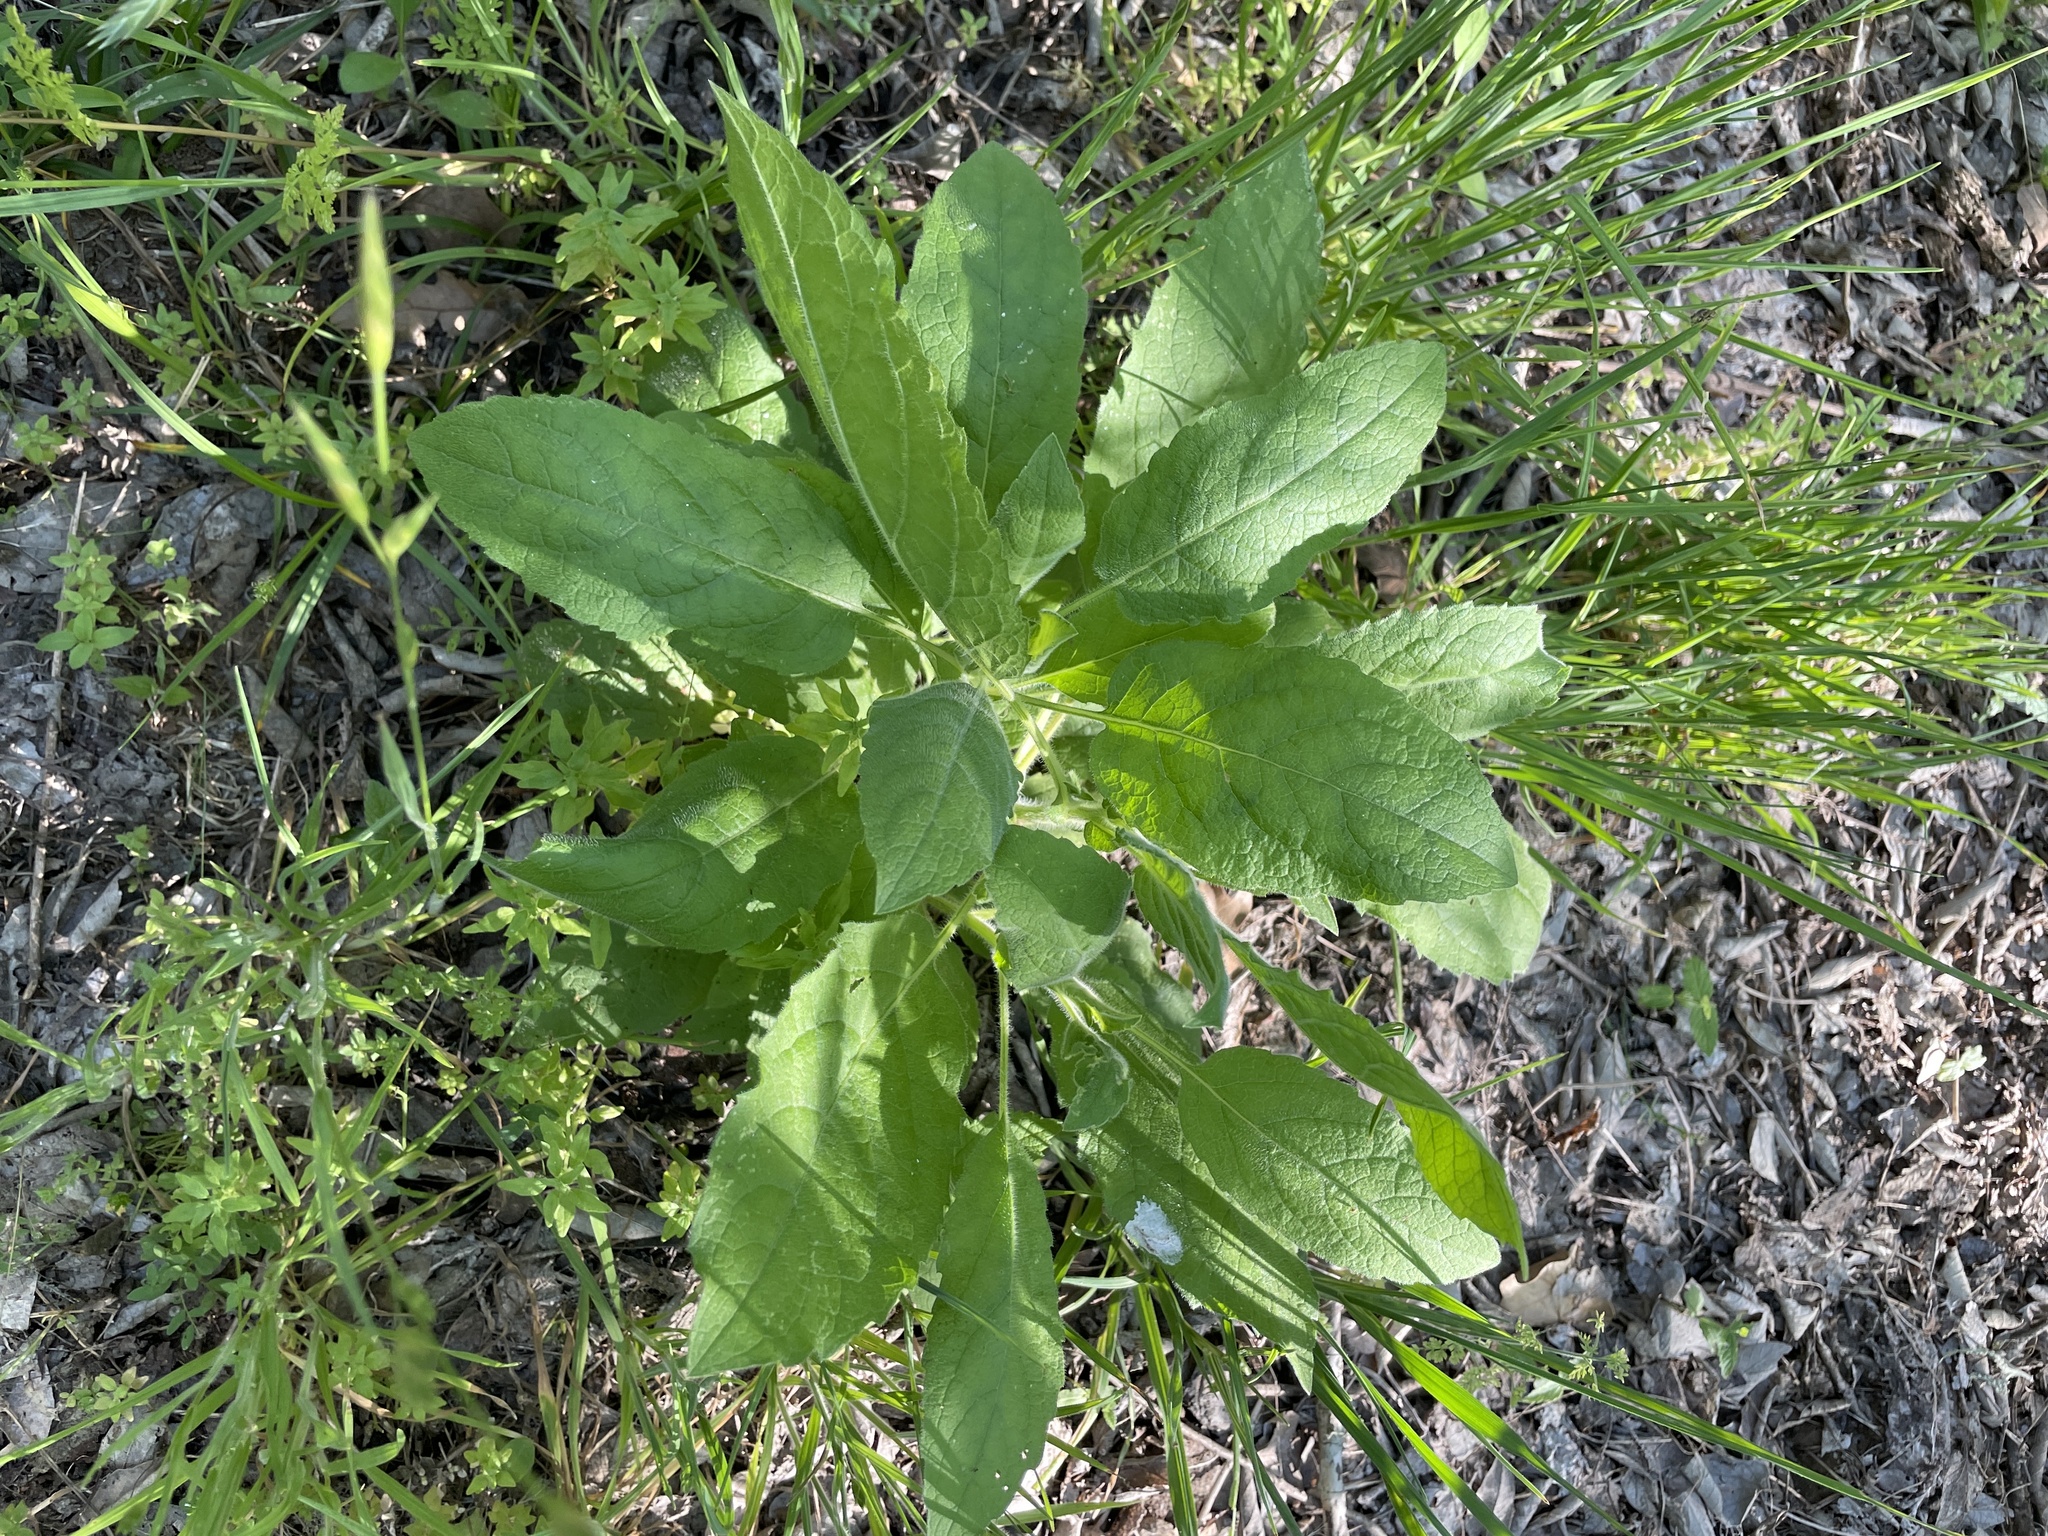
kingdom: Plantae
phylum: Tracheophyta
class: Magnoliopsida
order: Asterales
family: Asteraceae
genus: Heterotheca
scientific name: Heterotheca subaxillaris
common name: Camphorweed
